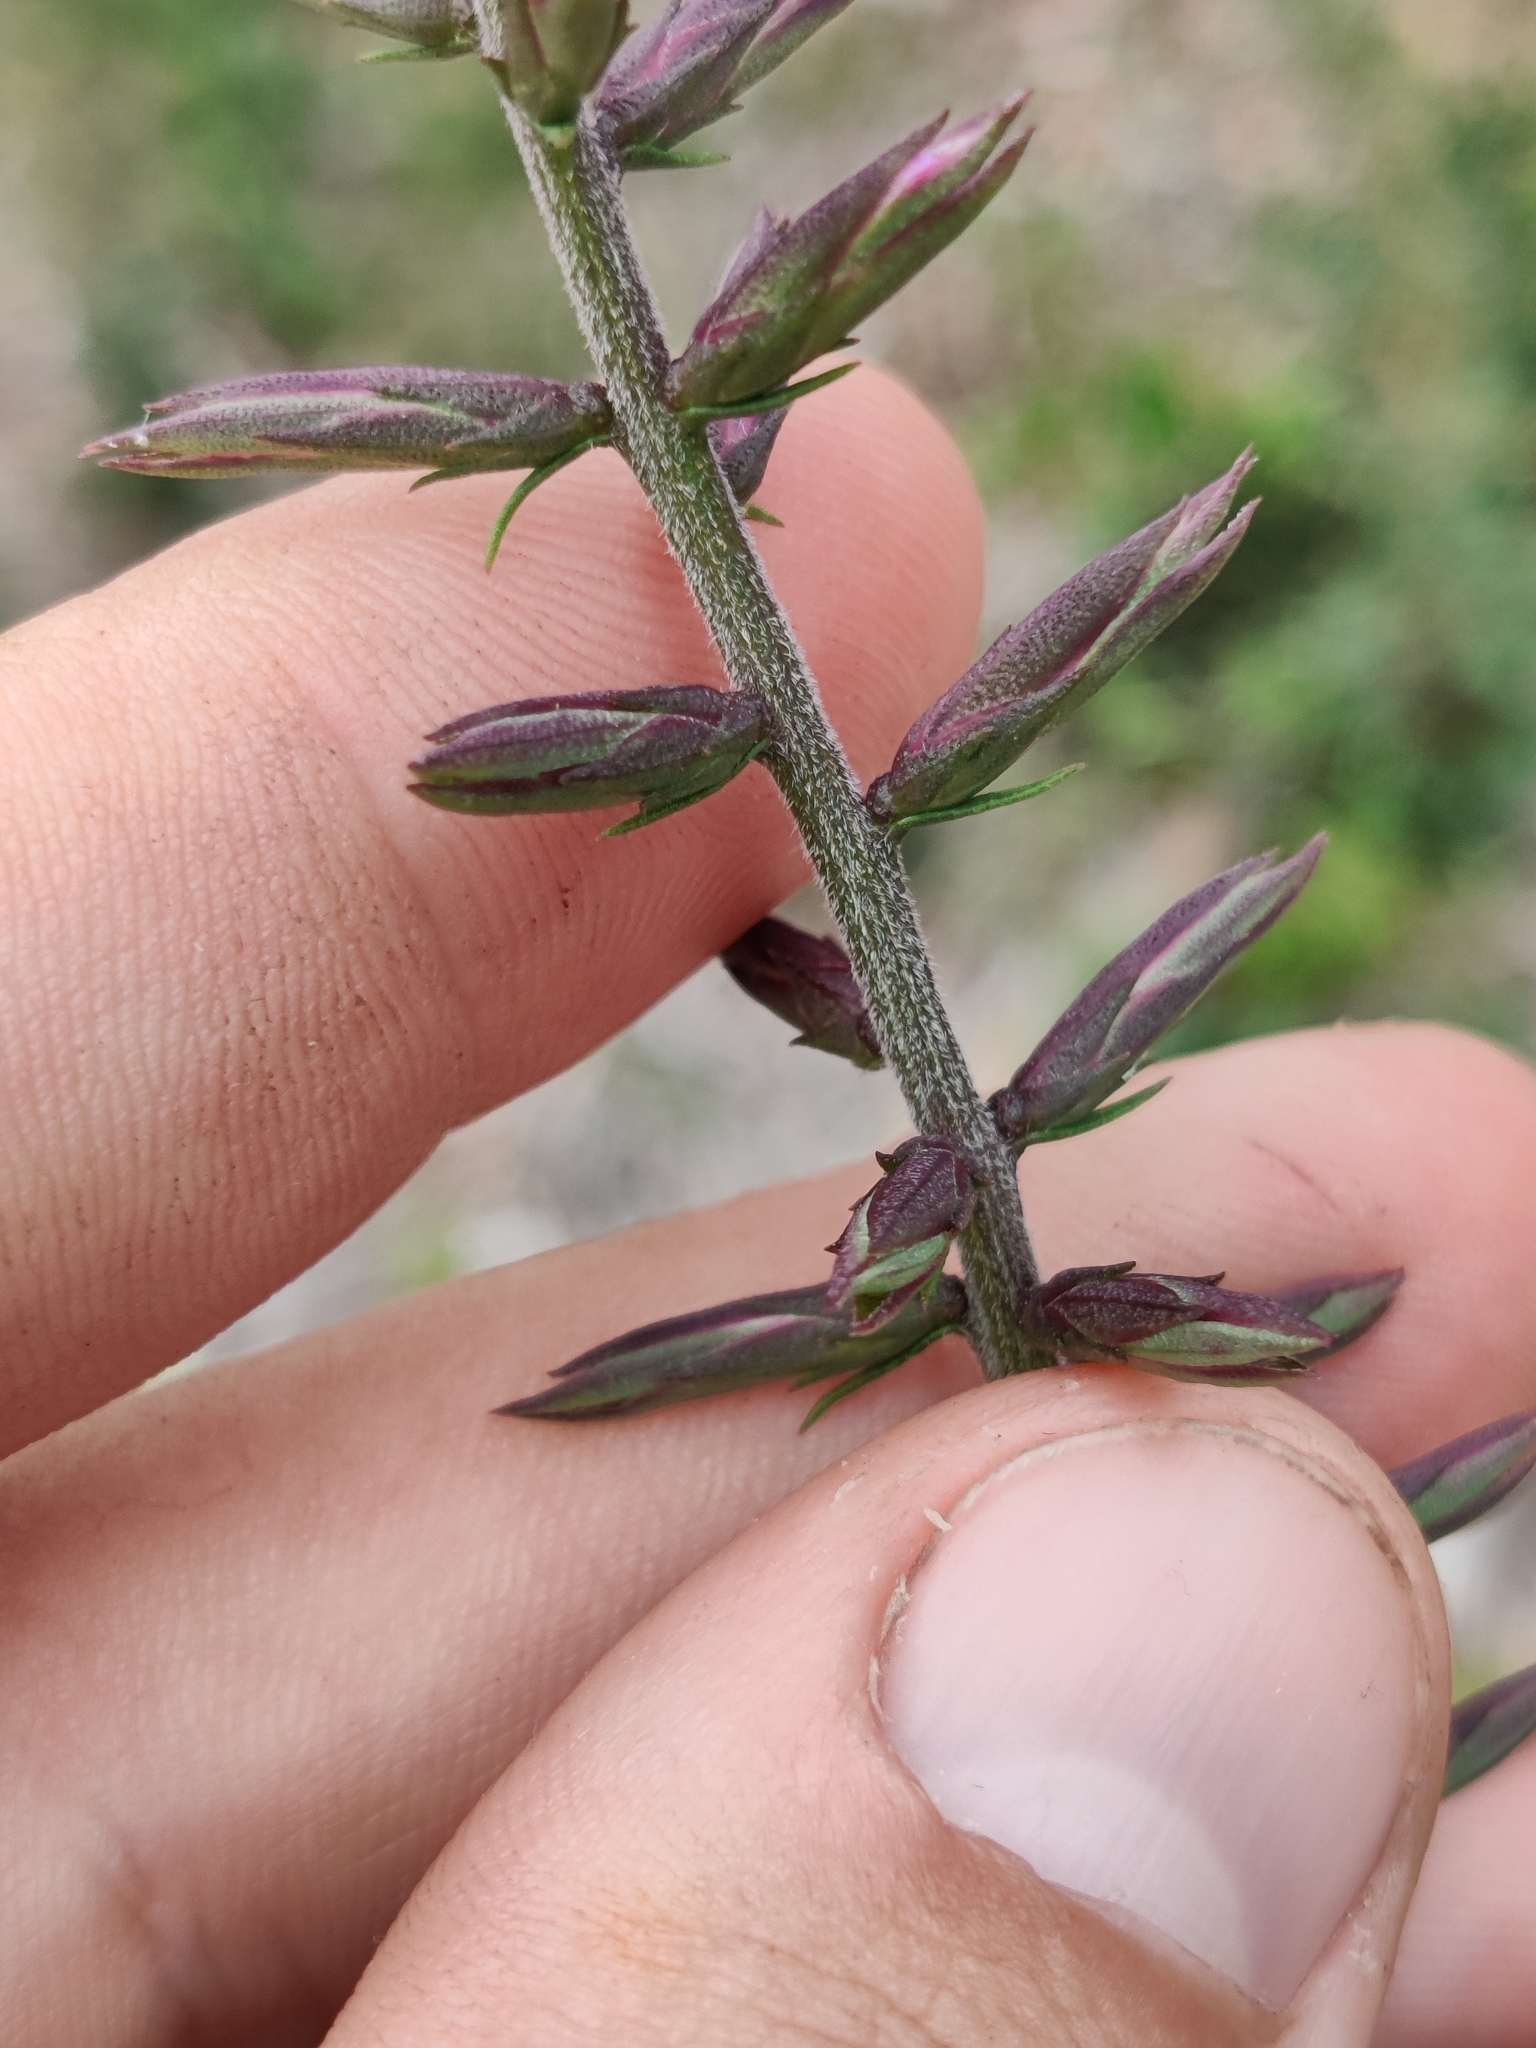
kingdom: Plantae
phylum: Tracheophyta
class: Magnoliopsida
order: Asterales
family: Asteraceae
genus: Liatris
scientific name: Liatris provincialis
